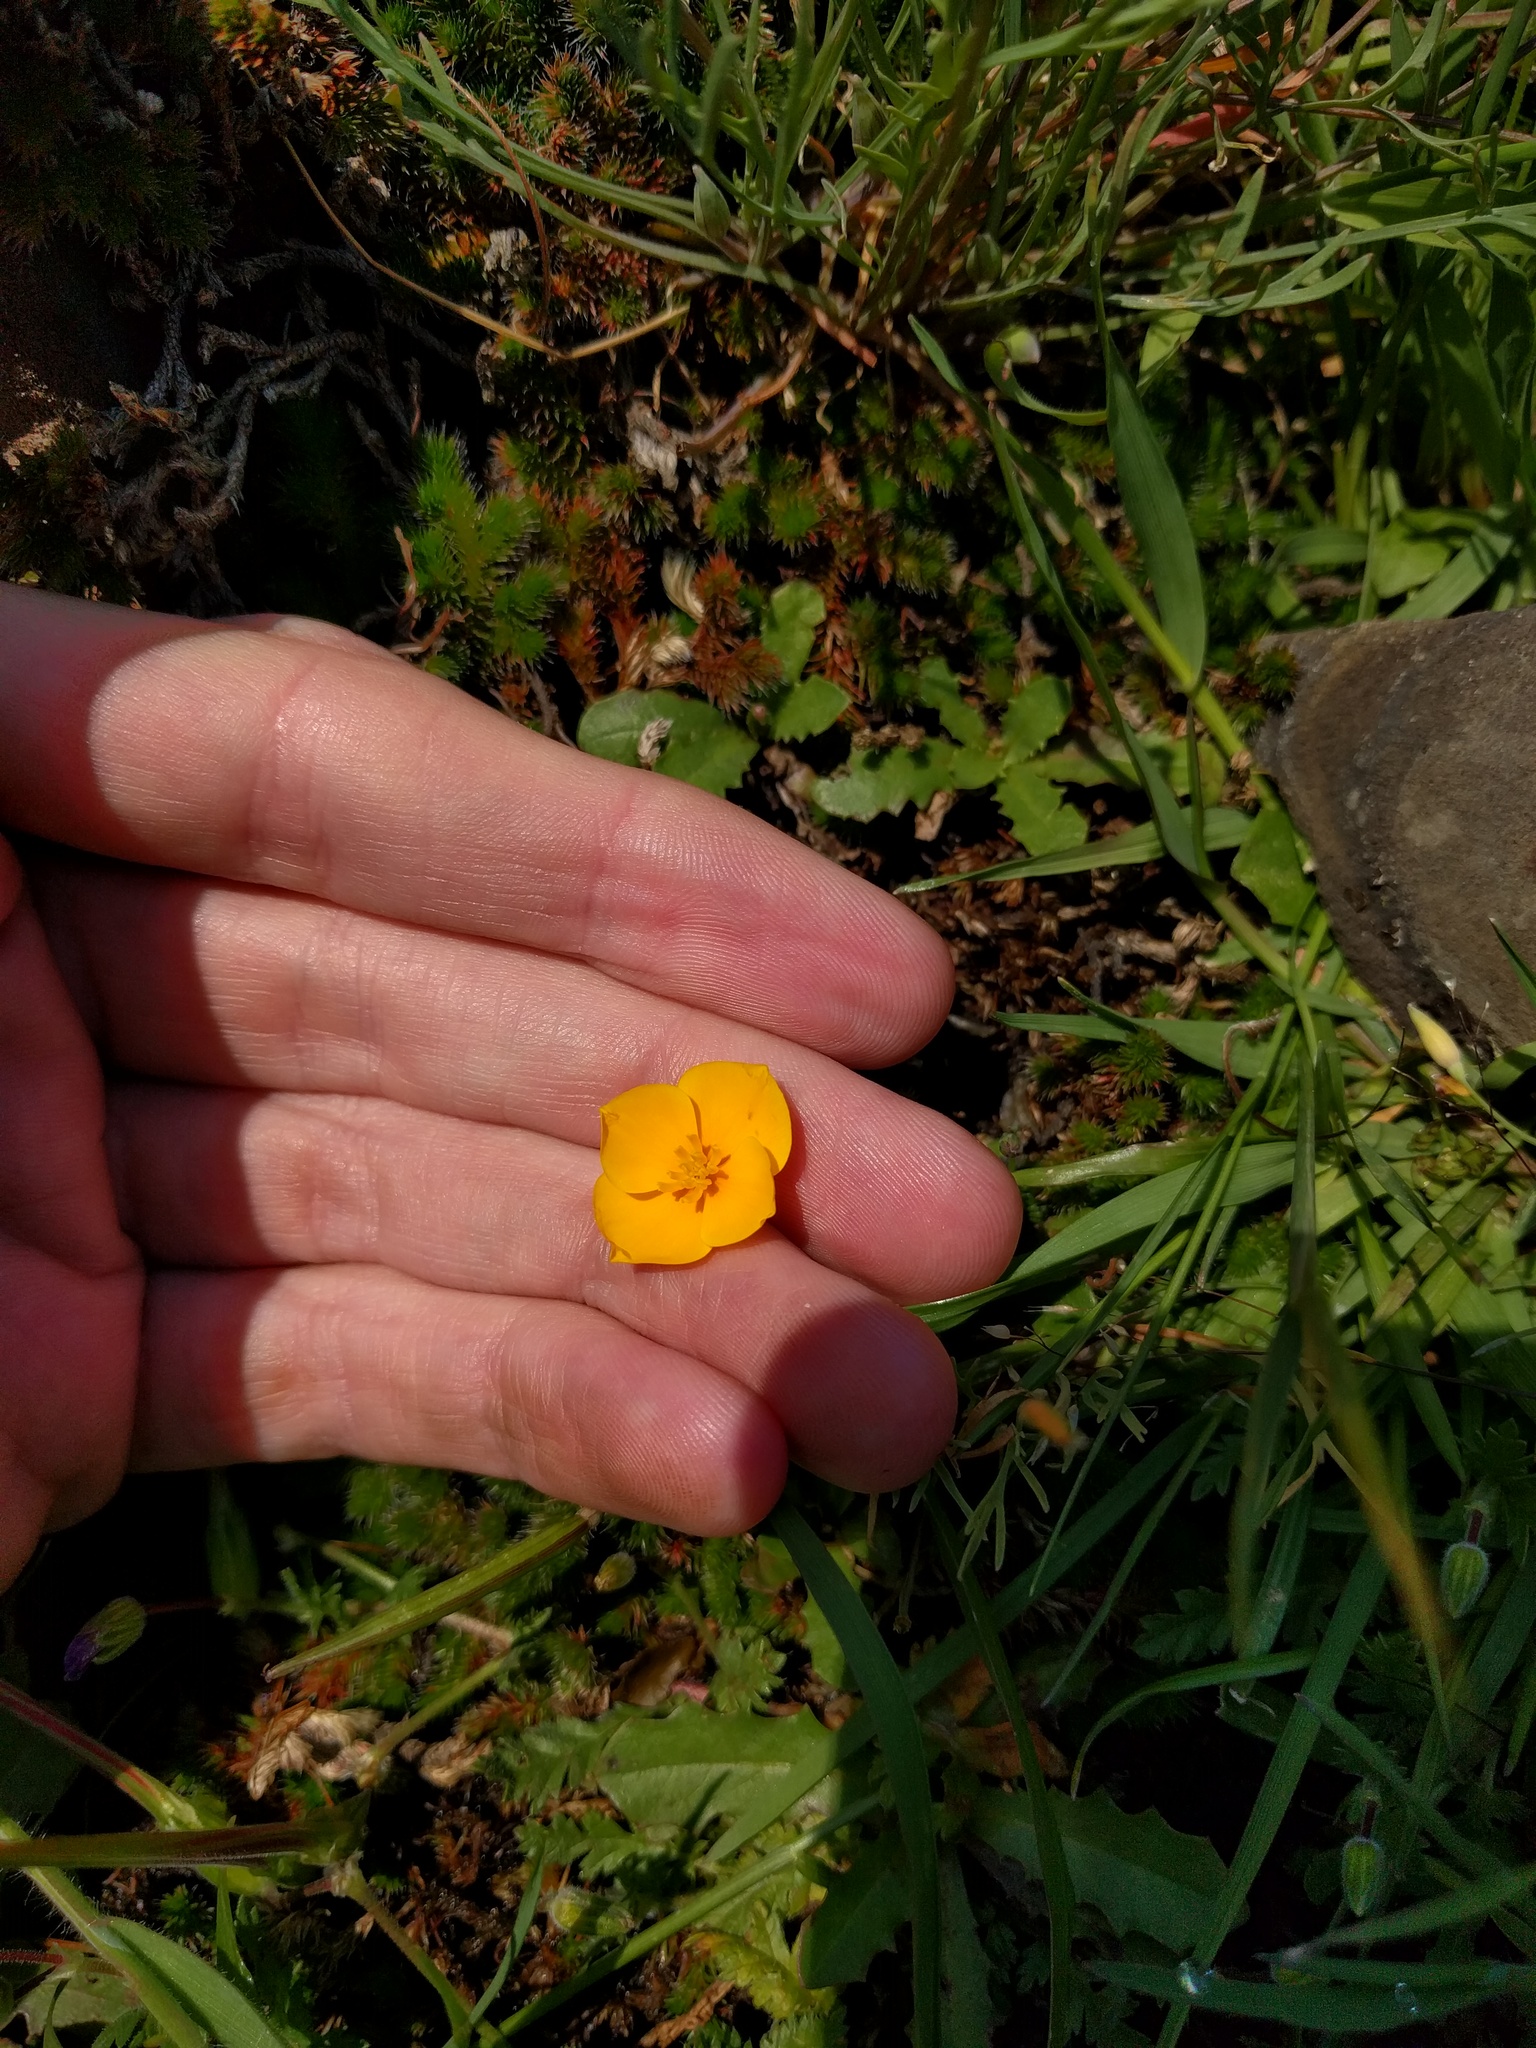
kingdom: Plantae
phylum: Tracheophyta
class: Magnoliopsida
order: Ranunculales
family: Papaveraceae
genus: Eschscholzia
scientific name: Eschscholzia lobbii
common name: Frying-pans
